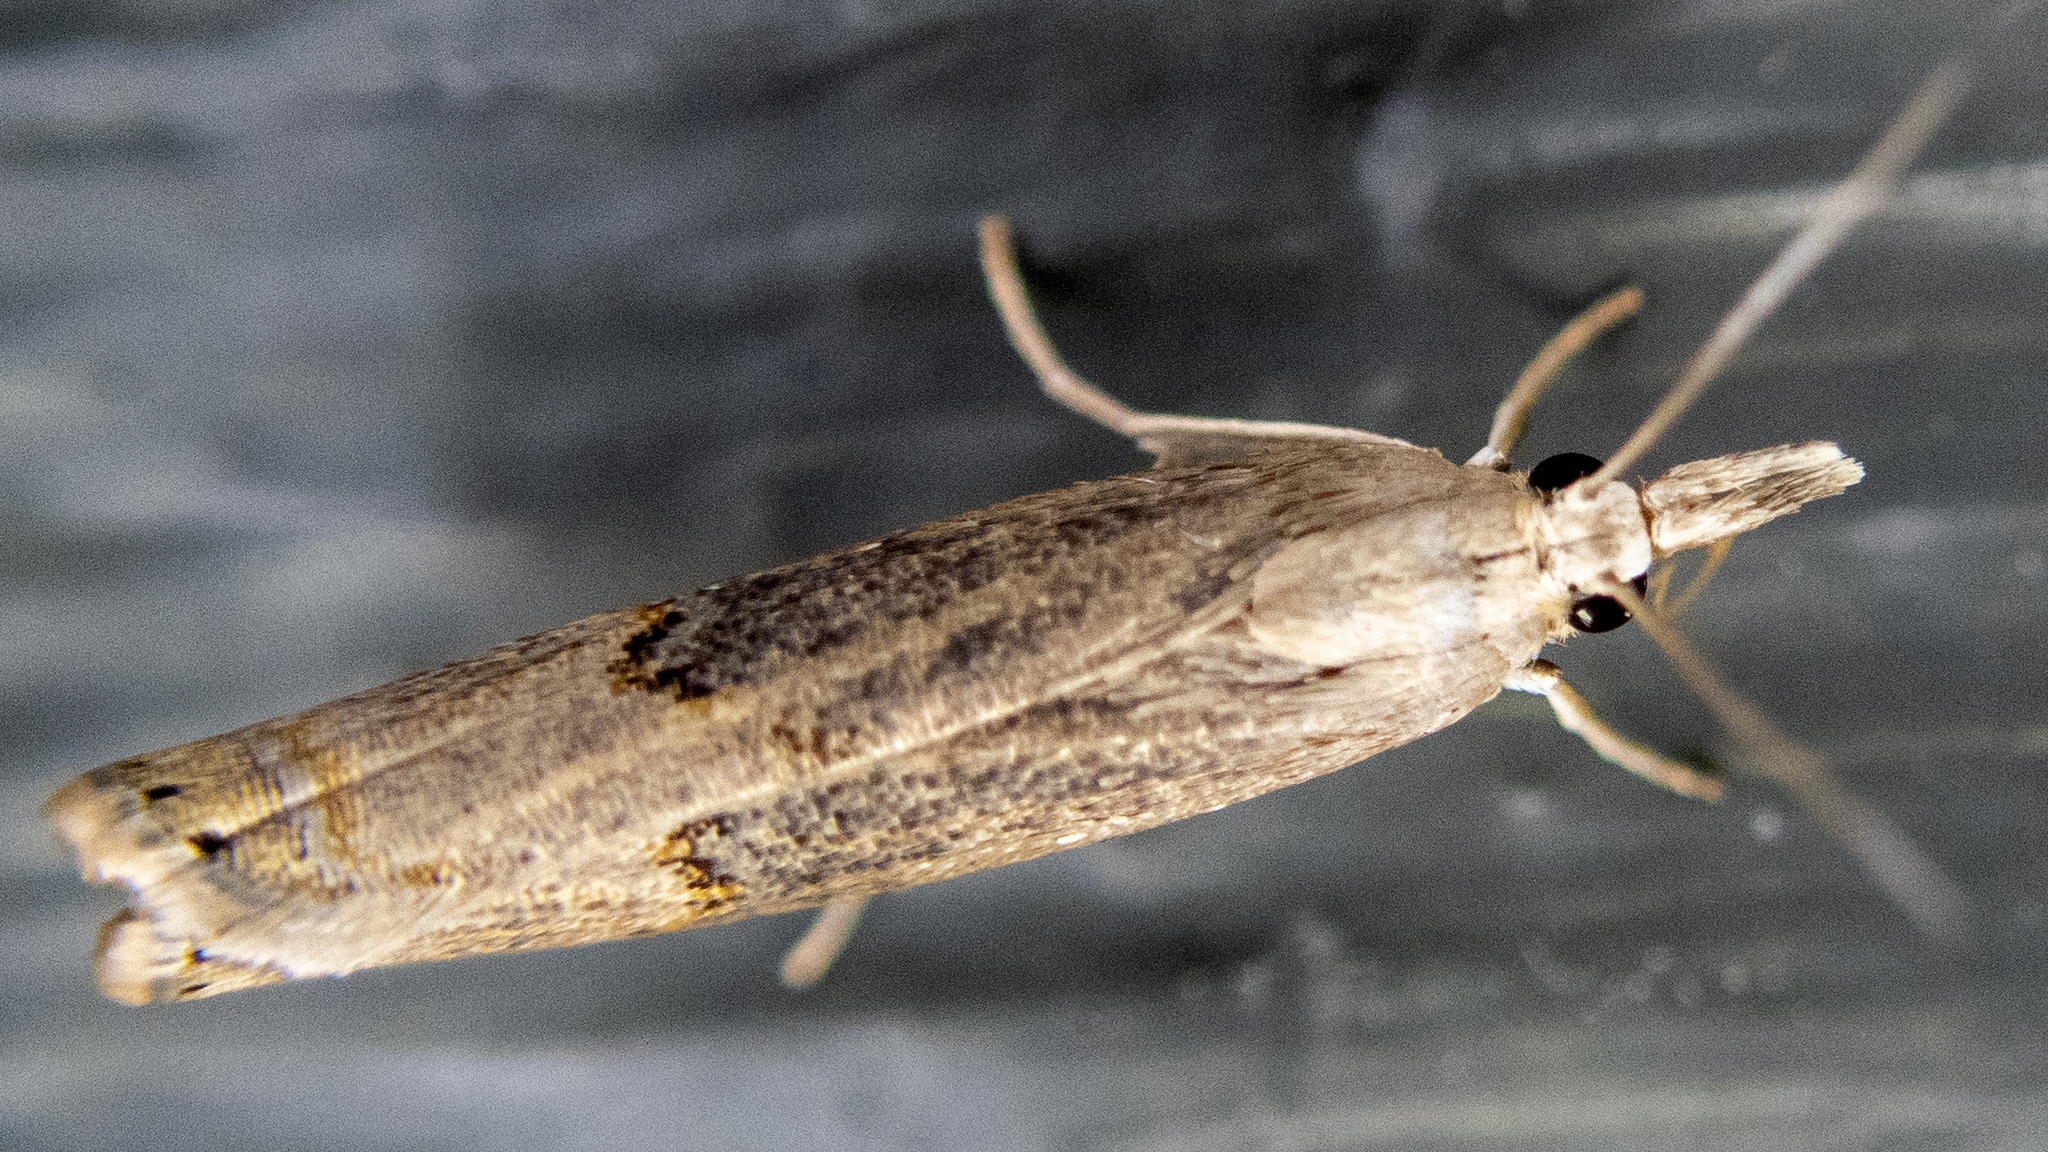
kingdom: Animalia
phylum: Arthropoda
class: Insecta
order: Lepidoptera
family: Crambidae
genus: Parapediasia
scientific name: Parapediasia teterellus
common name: Bluegrass webworm moth
